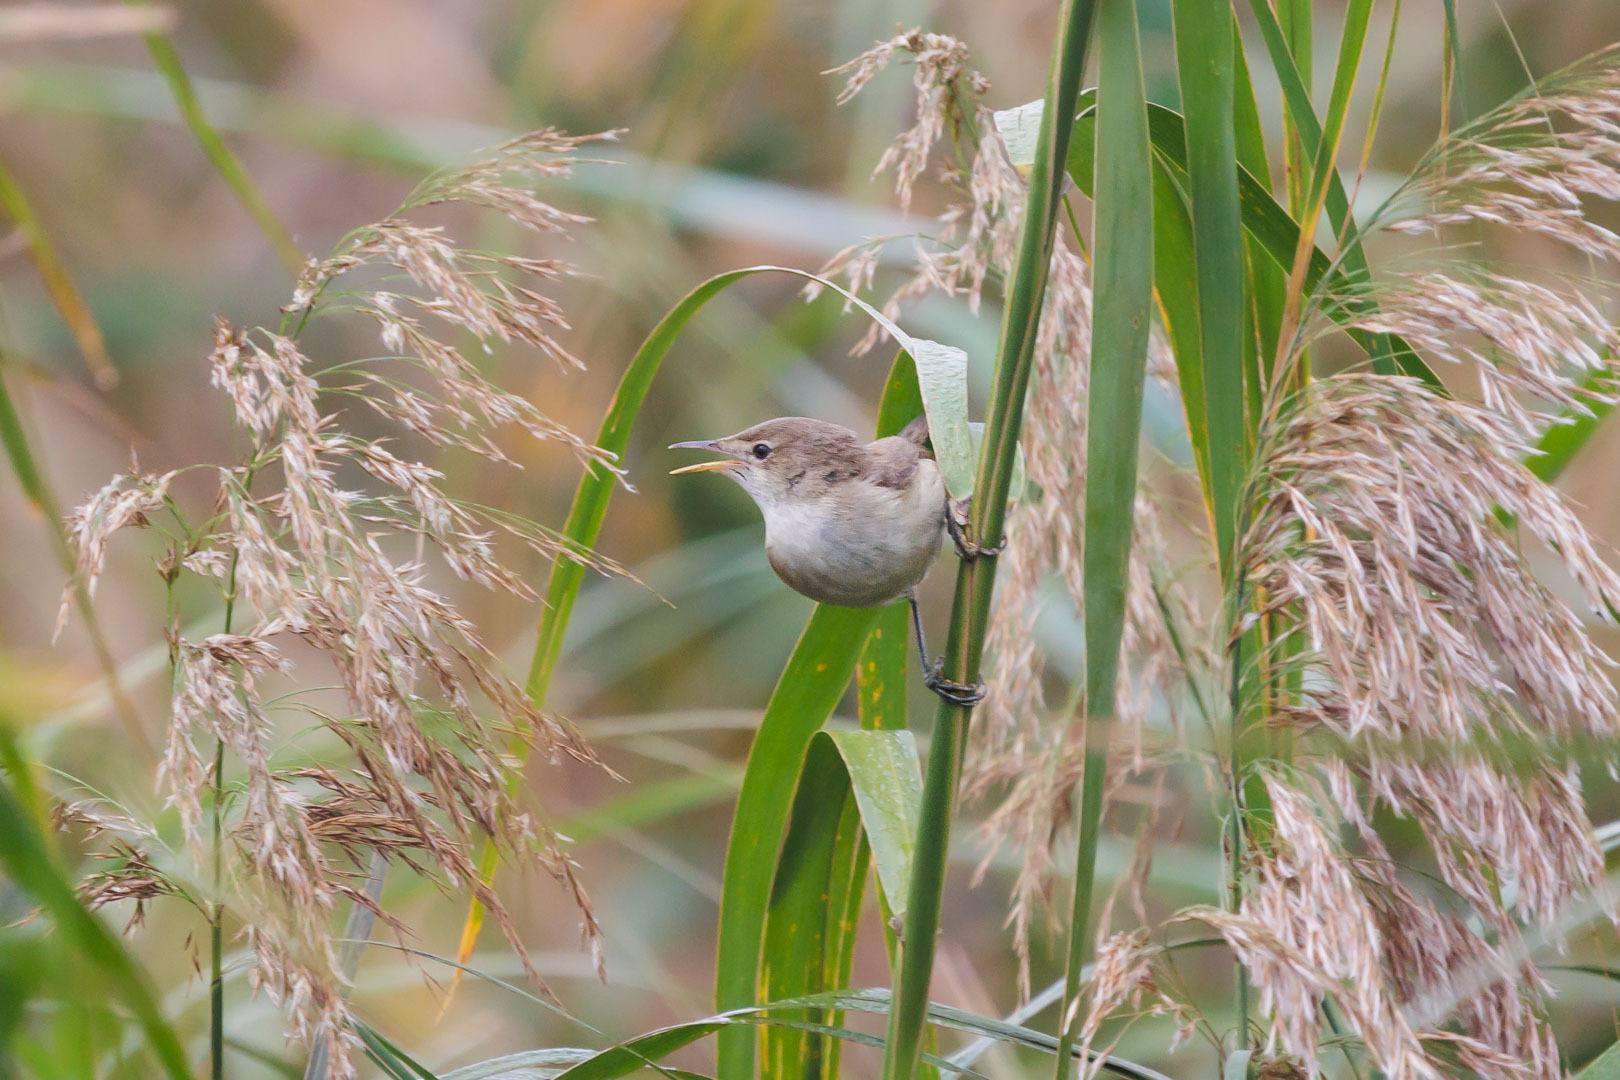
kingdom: Animalia
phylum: Chordata
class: Aves
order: Passeriformes
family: Acrocephalidae
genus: Acrocephalus
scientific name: Acrocephalus arundinaceus
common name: Great reed warbler
